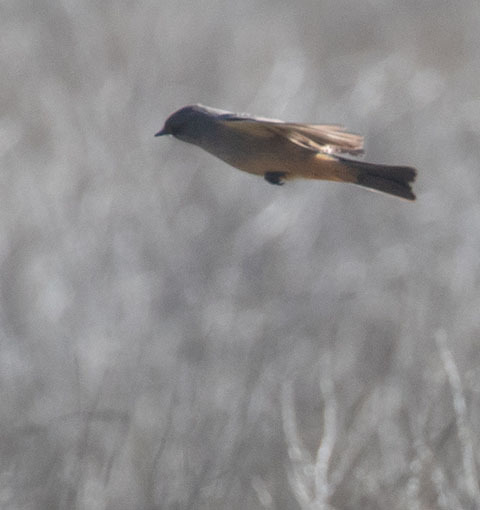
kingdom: Animalia
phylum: Chordata
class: Aves
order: Passeriformes
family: Tyrannidae
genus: Sayornis
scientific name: Sayornis saya
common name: Say's phoebe
